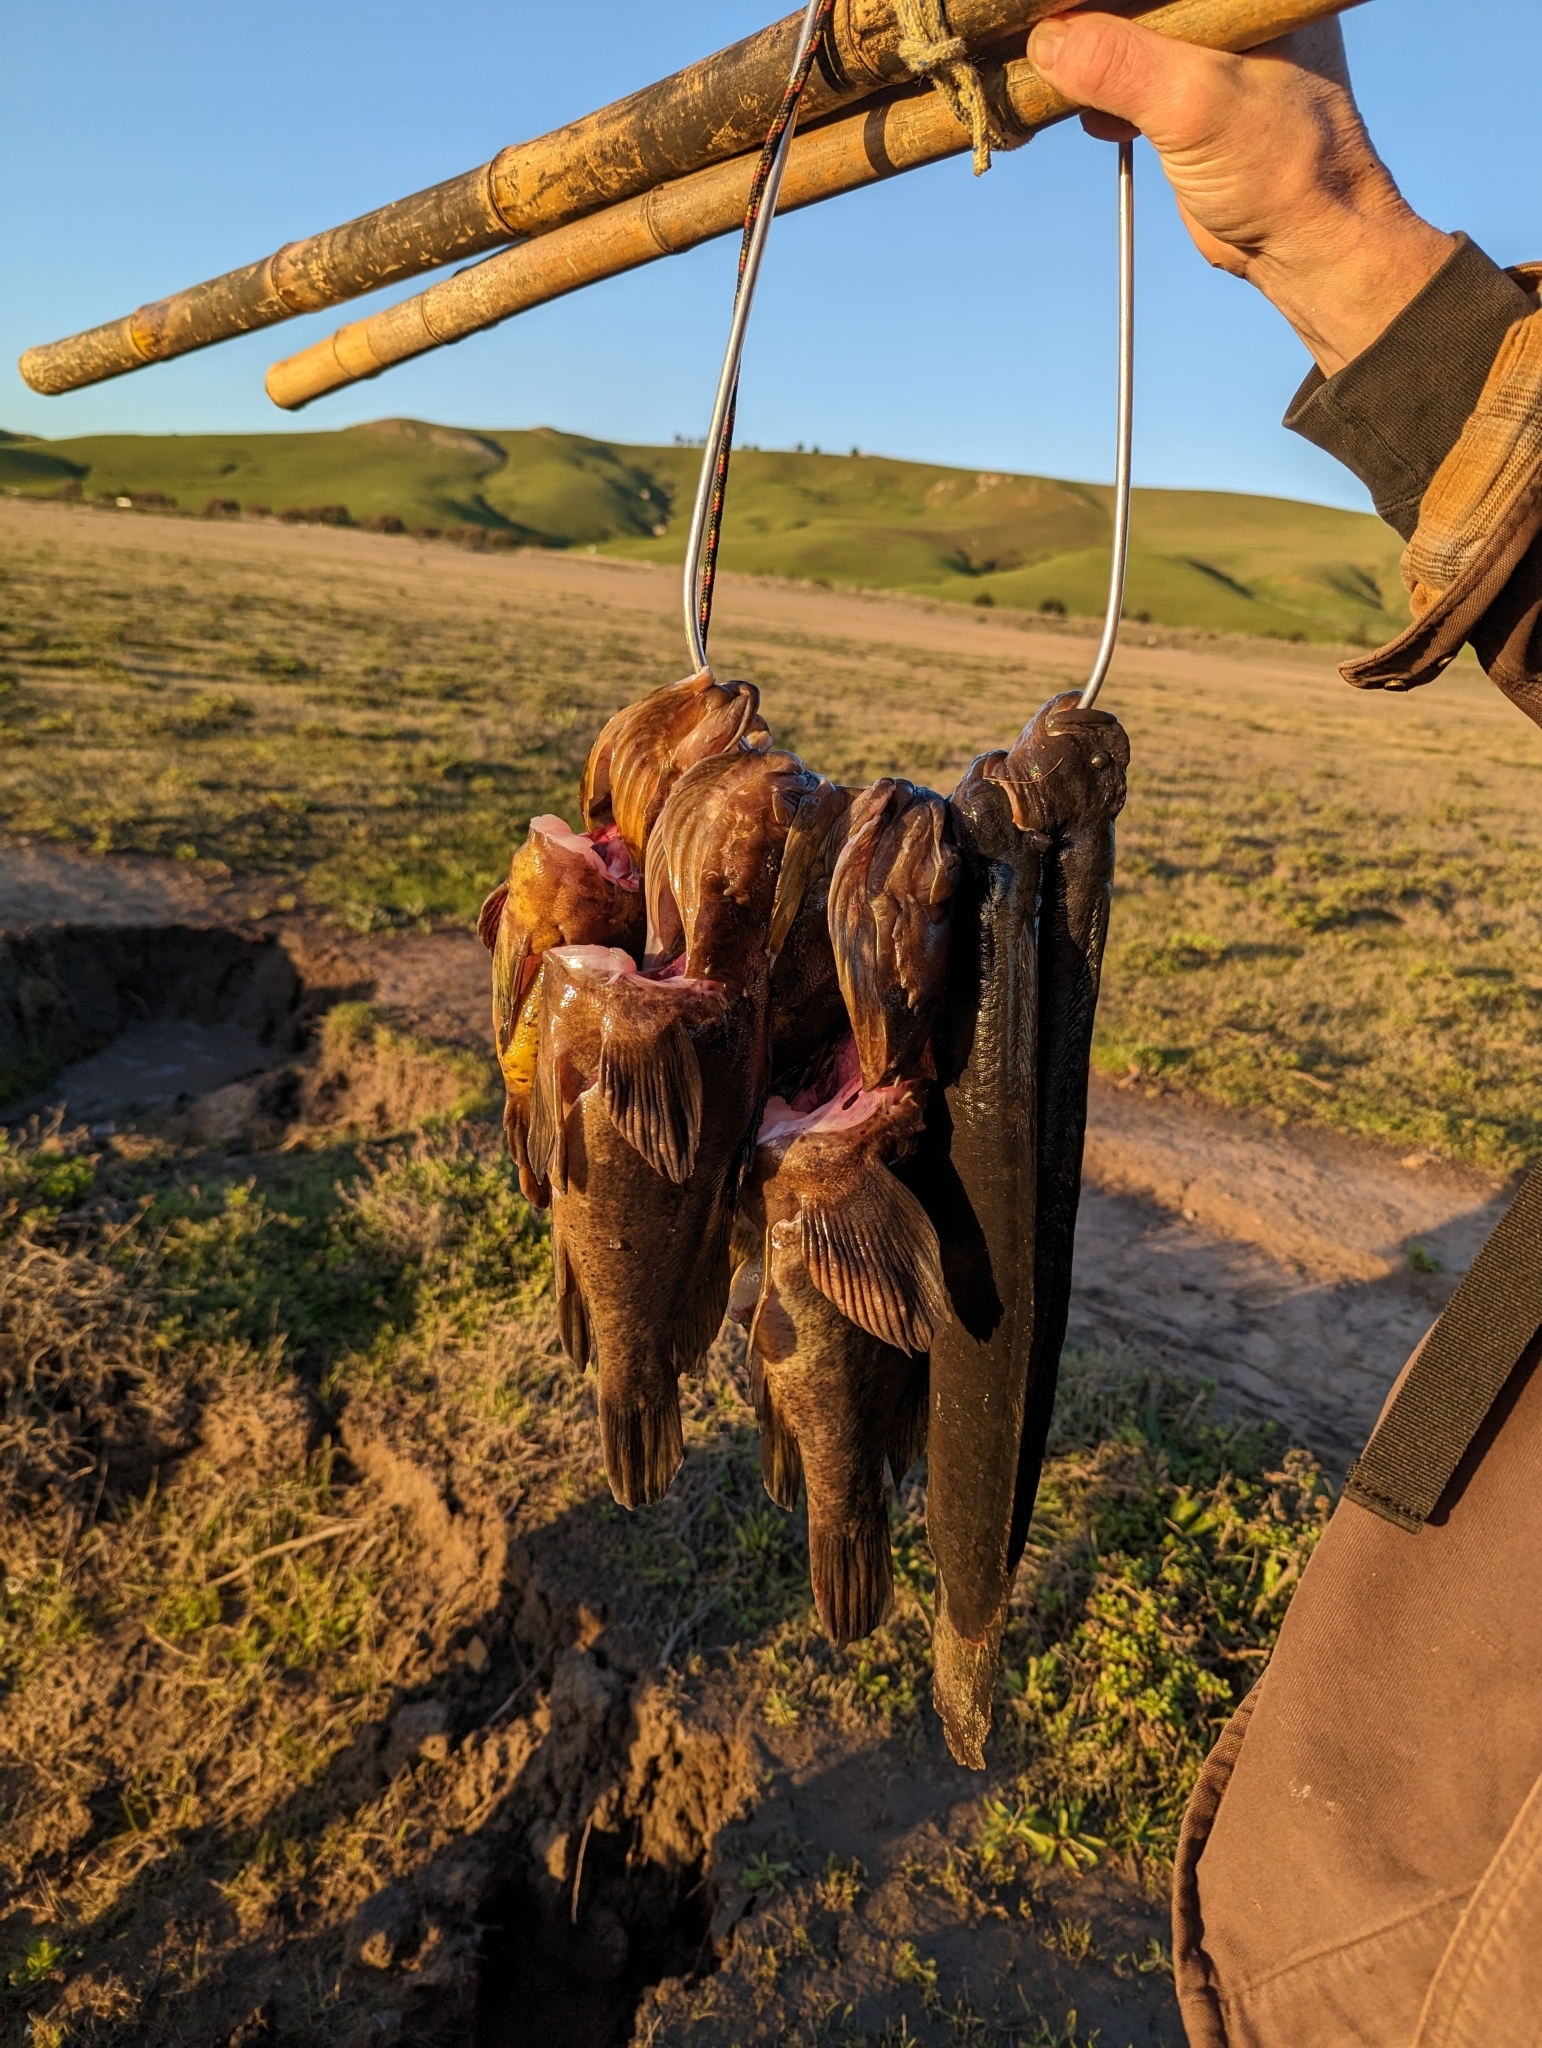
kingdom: Animalia
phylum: Chordata
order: Perciformes
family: Stichaeidae
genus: Cebidichthys
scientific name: Cebidichthys violaceus
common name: Monkeyface prickleback
